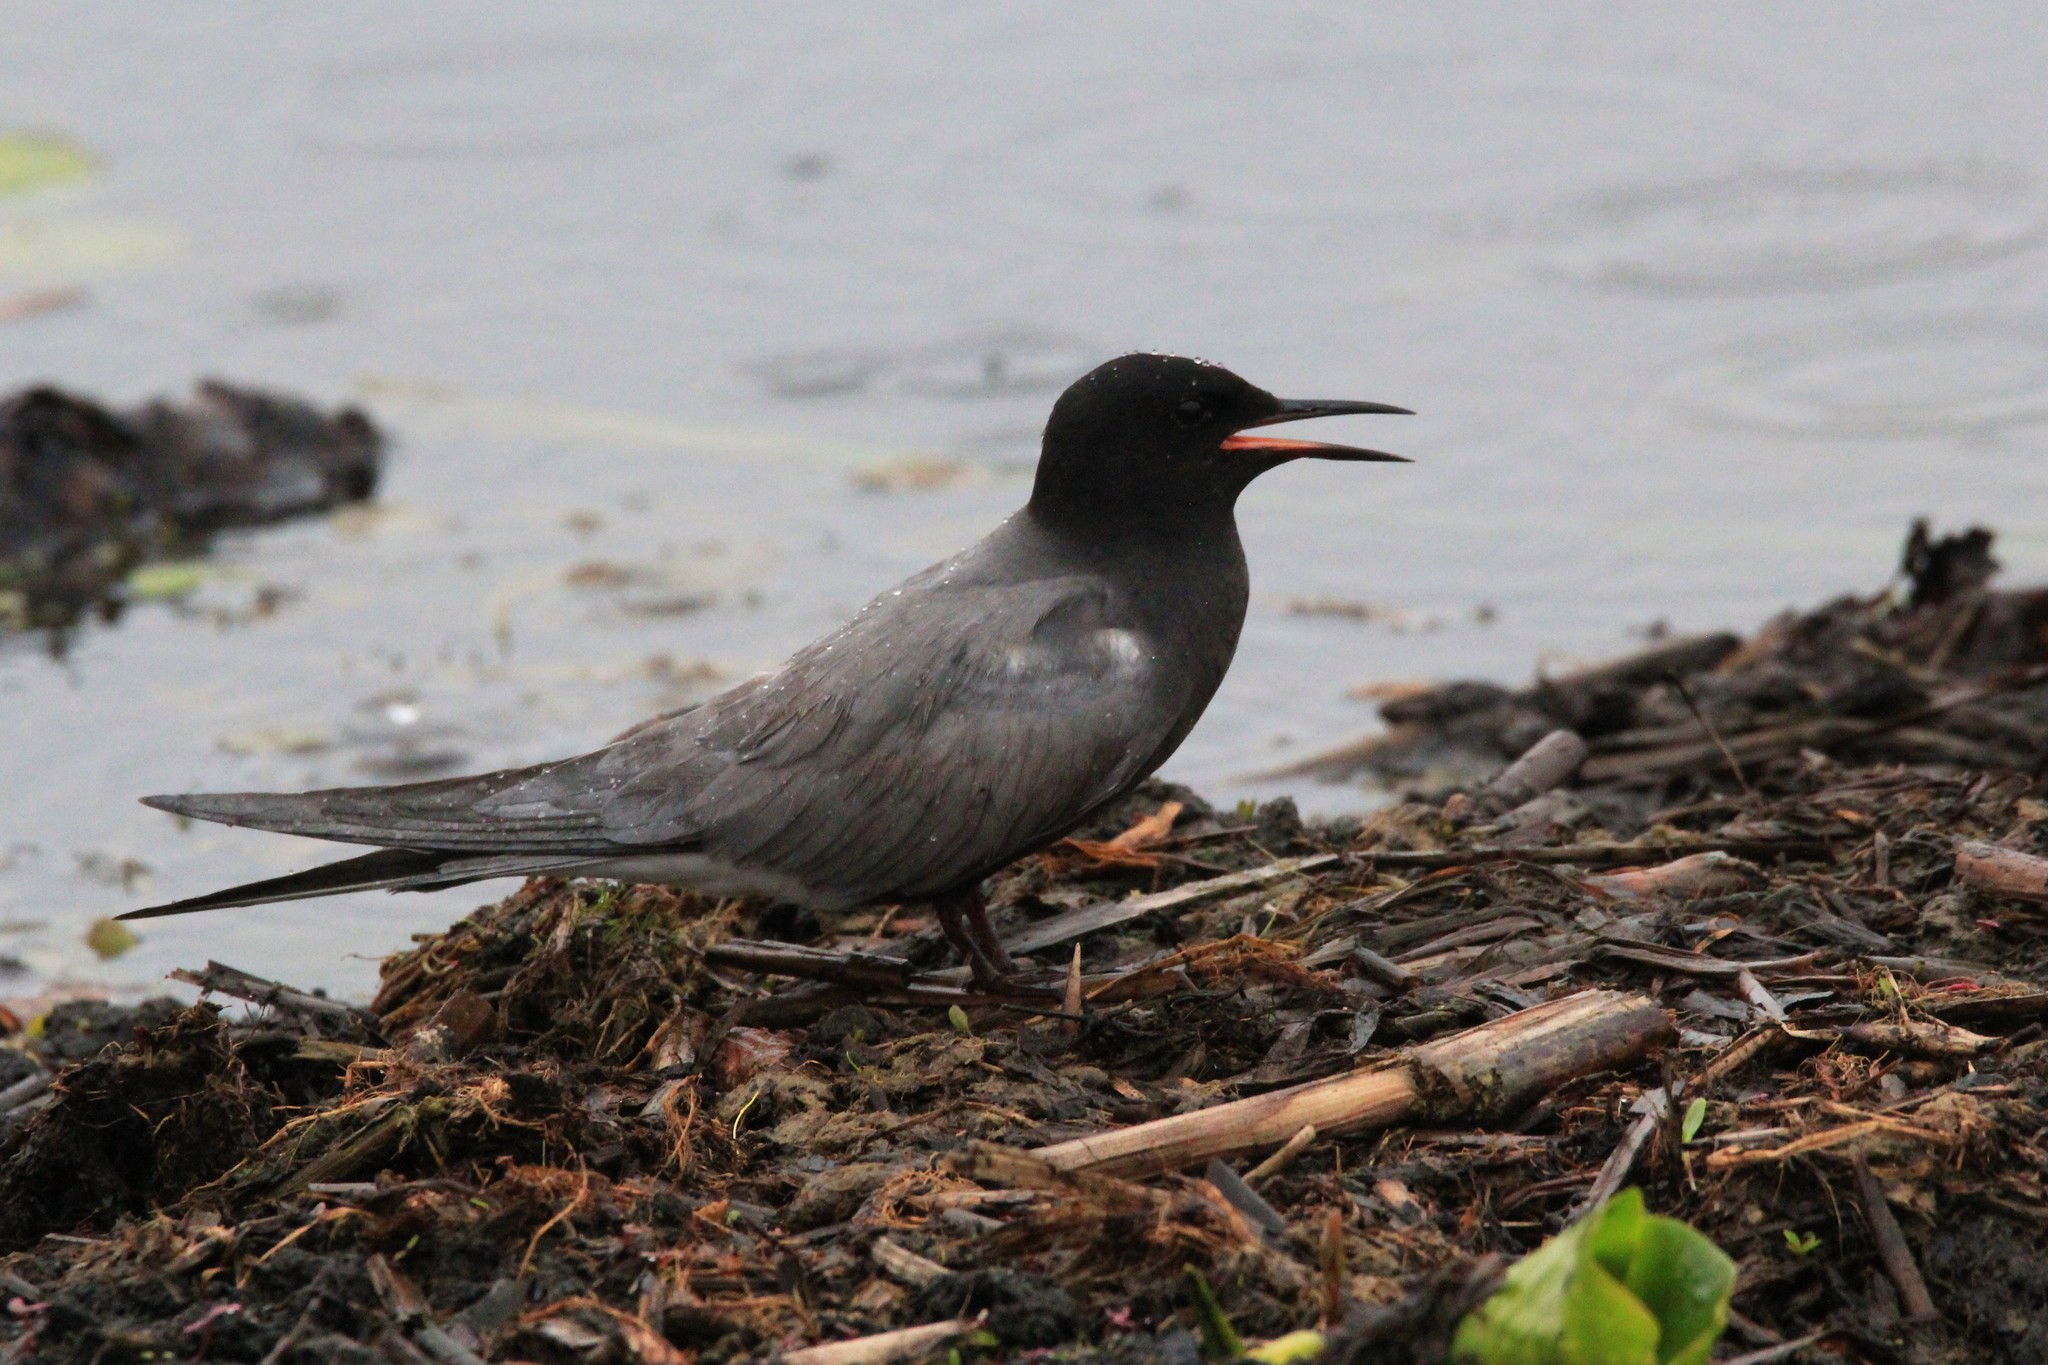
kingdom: Animalia
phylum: Chordata
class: Aves
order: Charadriiformes
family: Laridae
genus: Chlidonias
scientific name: Chlidonias niger
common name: Black tern
